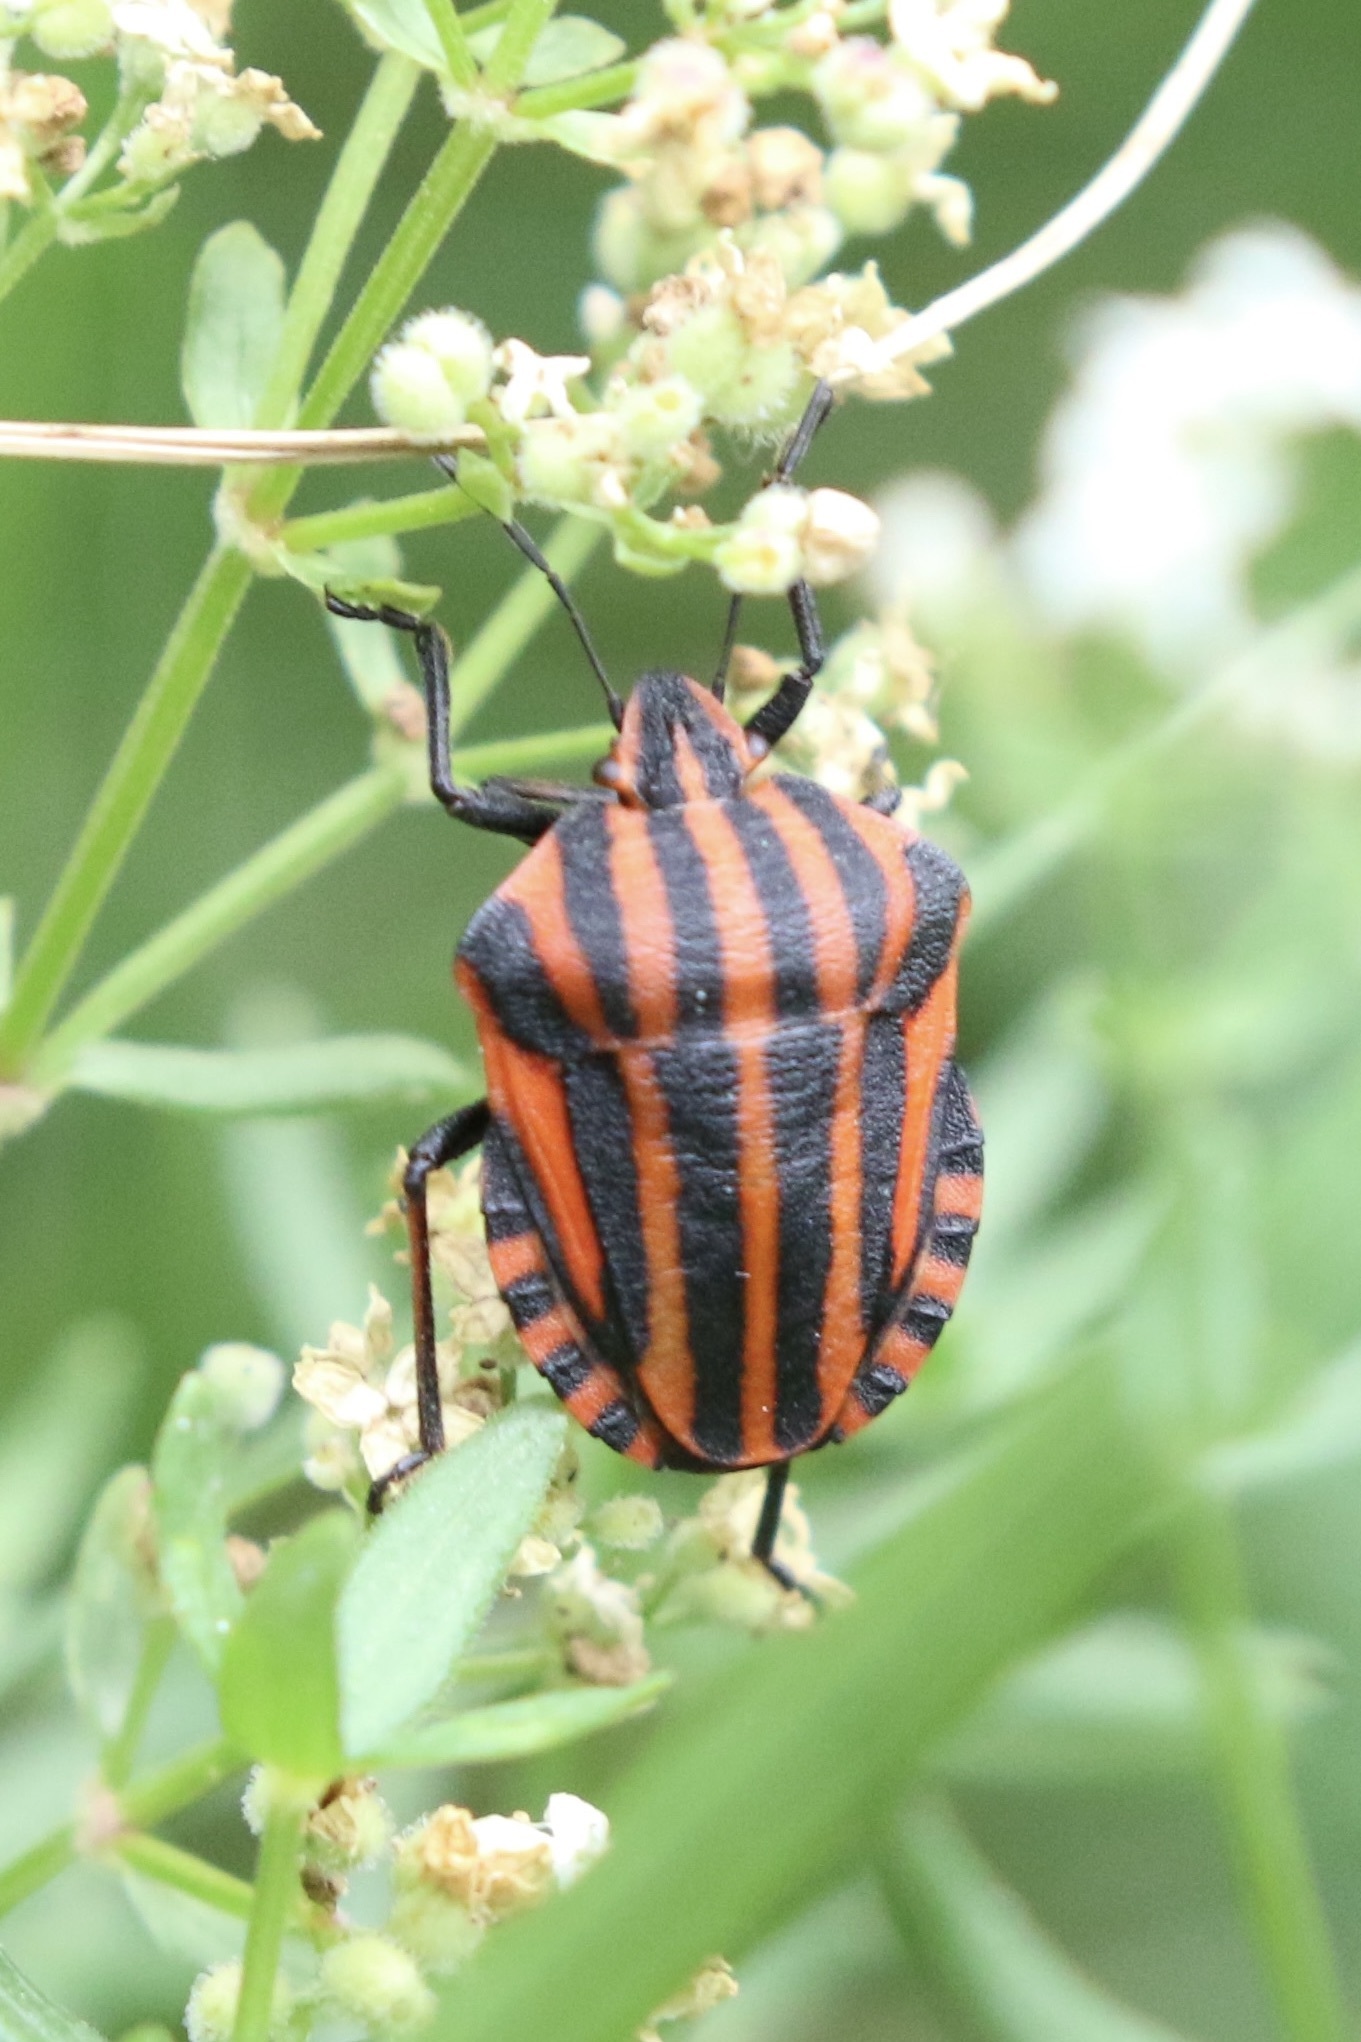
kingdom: Animalia
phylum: Arthropoda
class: Insecta
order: Hemiptera
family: Pentatomidae
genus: Graphosoma
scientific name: Graphosoma italicum
